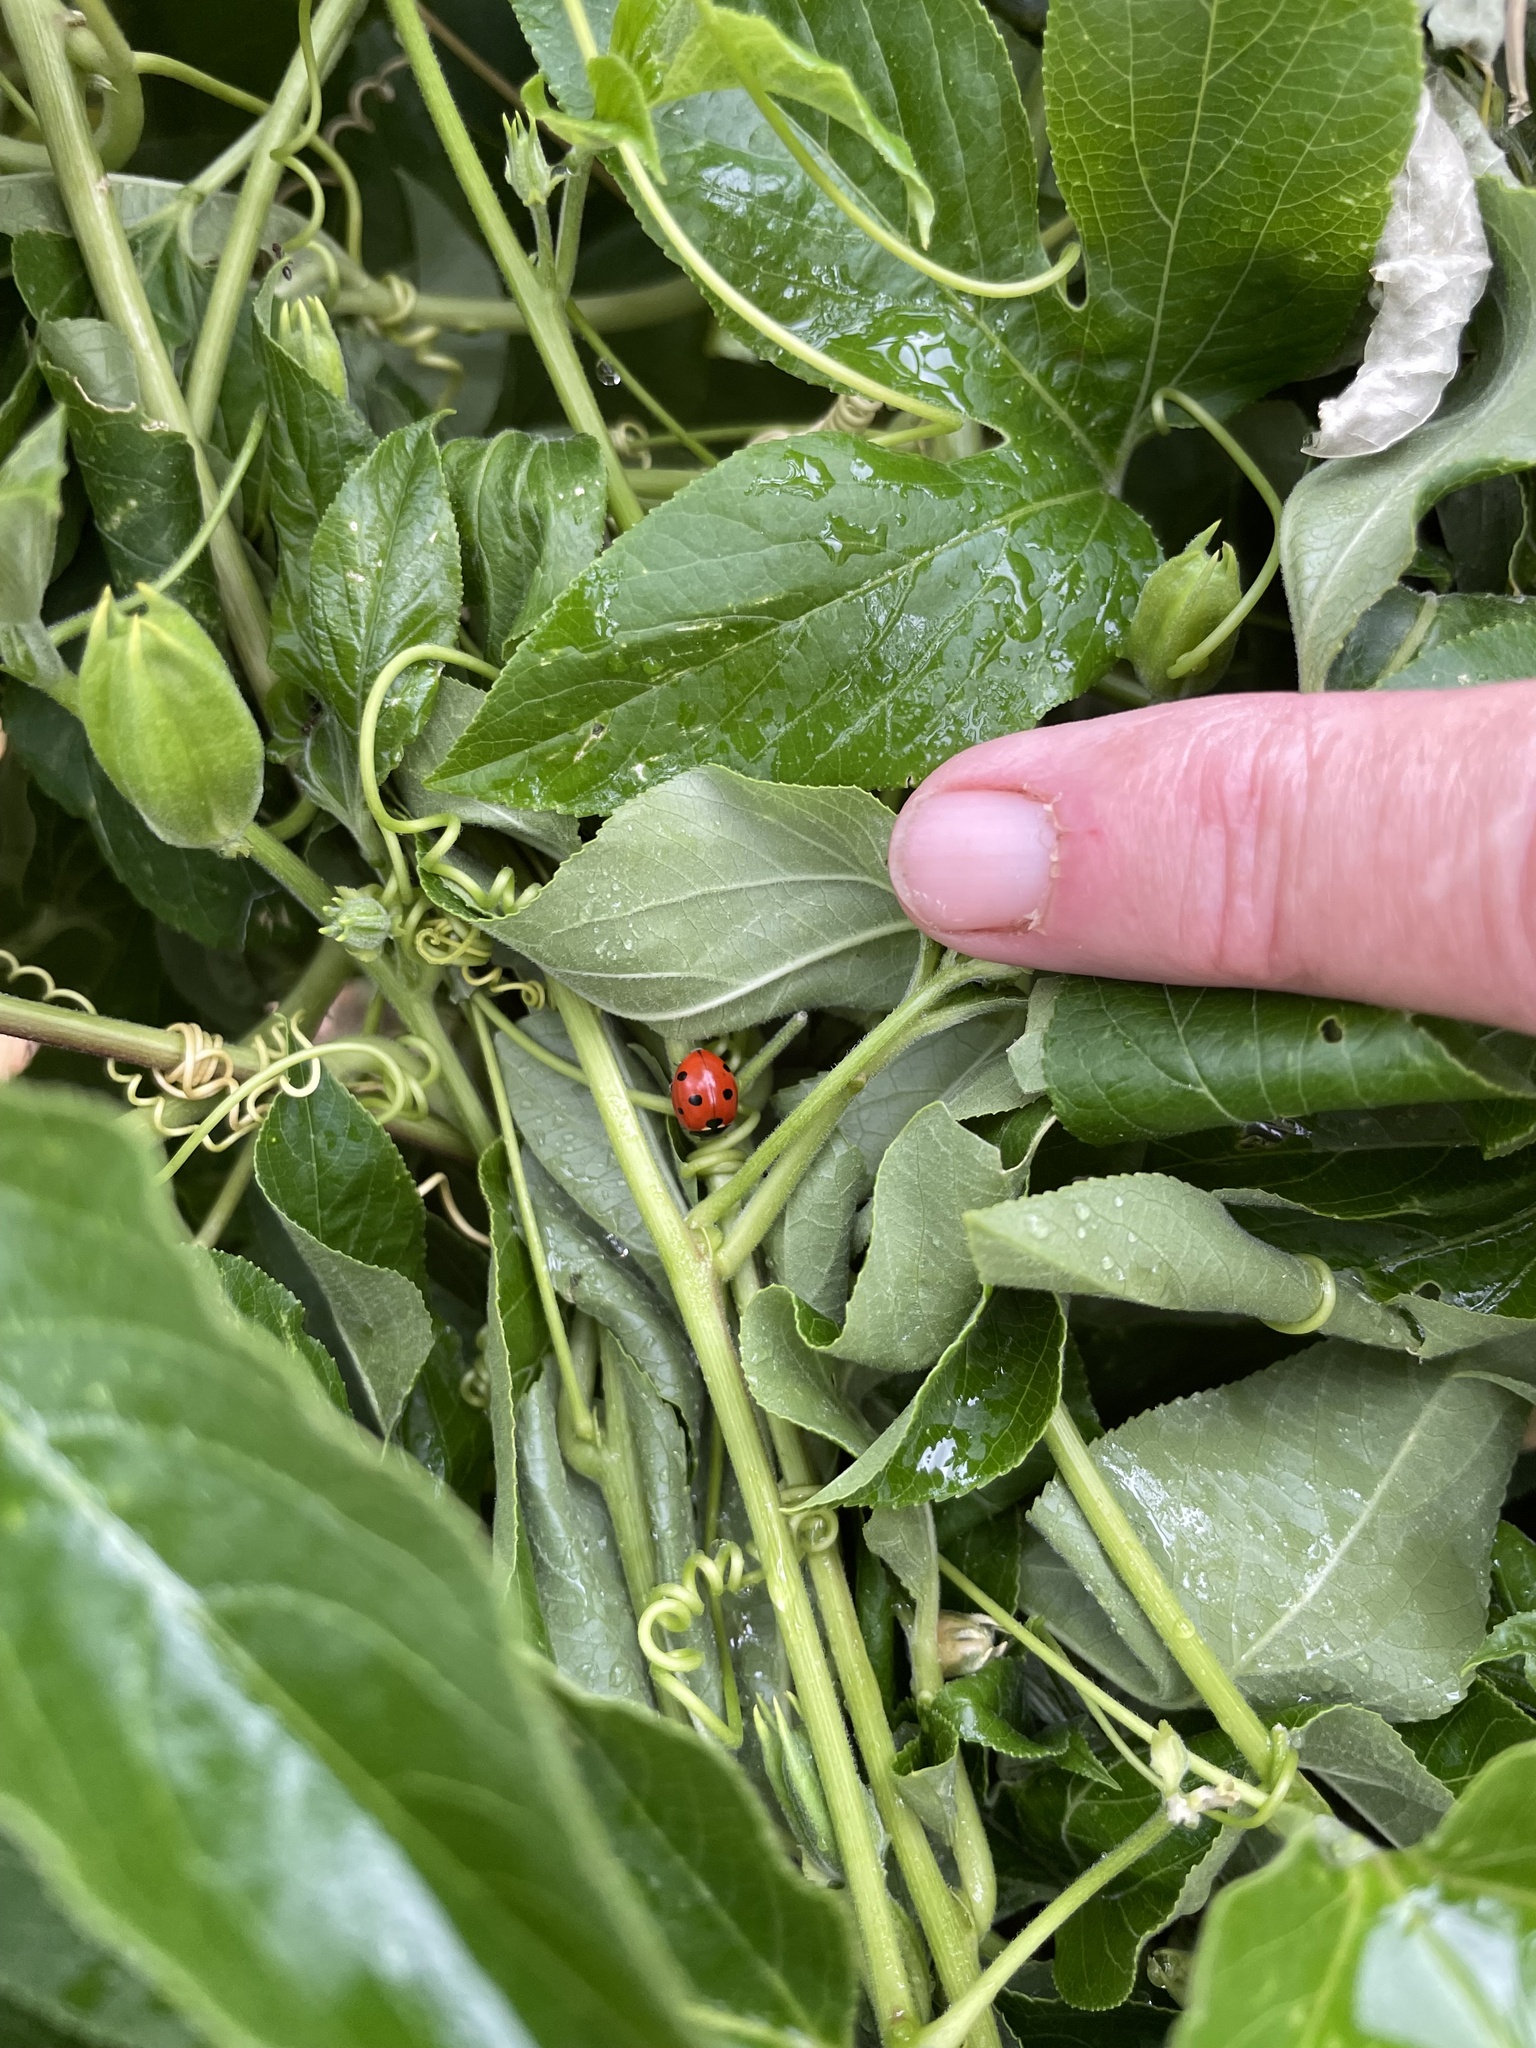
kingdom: Animalia
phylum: Arthropoda
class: Insecta
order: Coleoptera
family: Coccinellidae
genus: Coccinella
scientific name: Coccinella septempunctata
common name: Sevenspotted lady beetle
